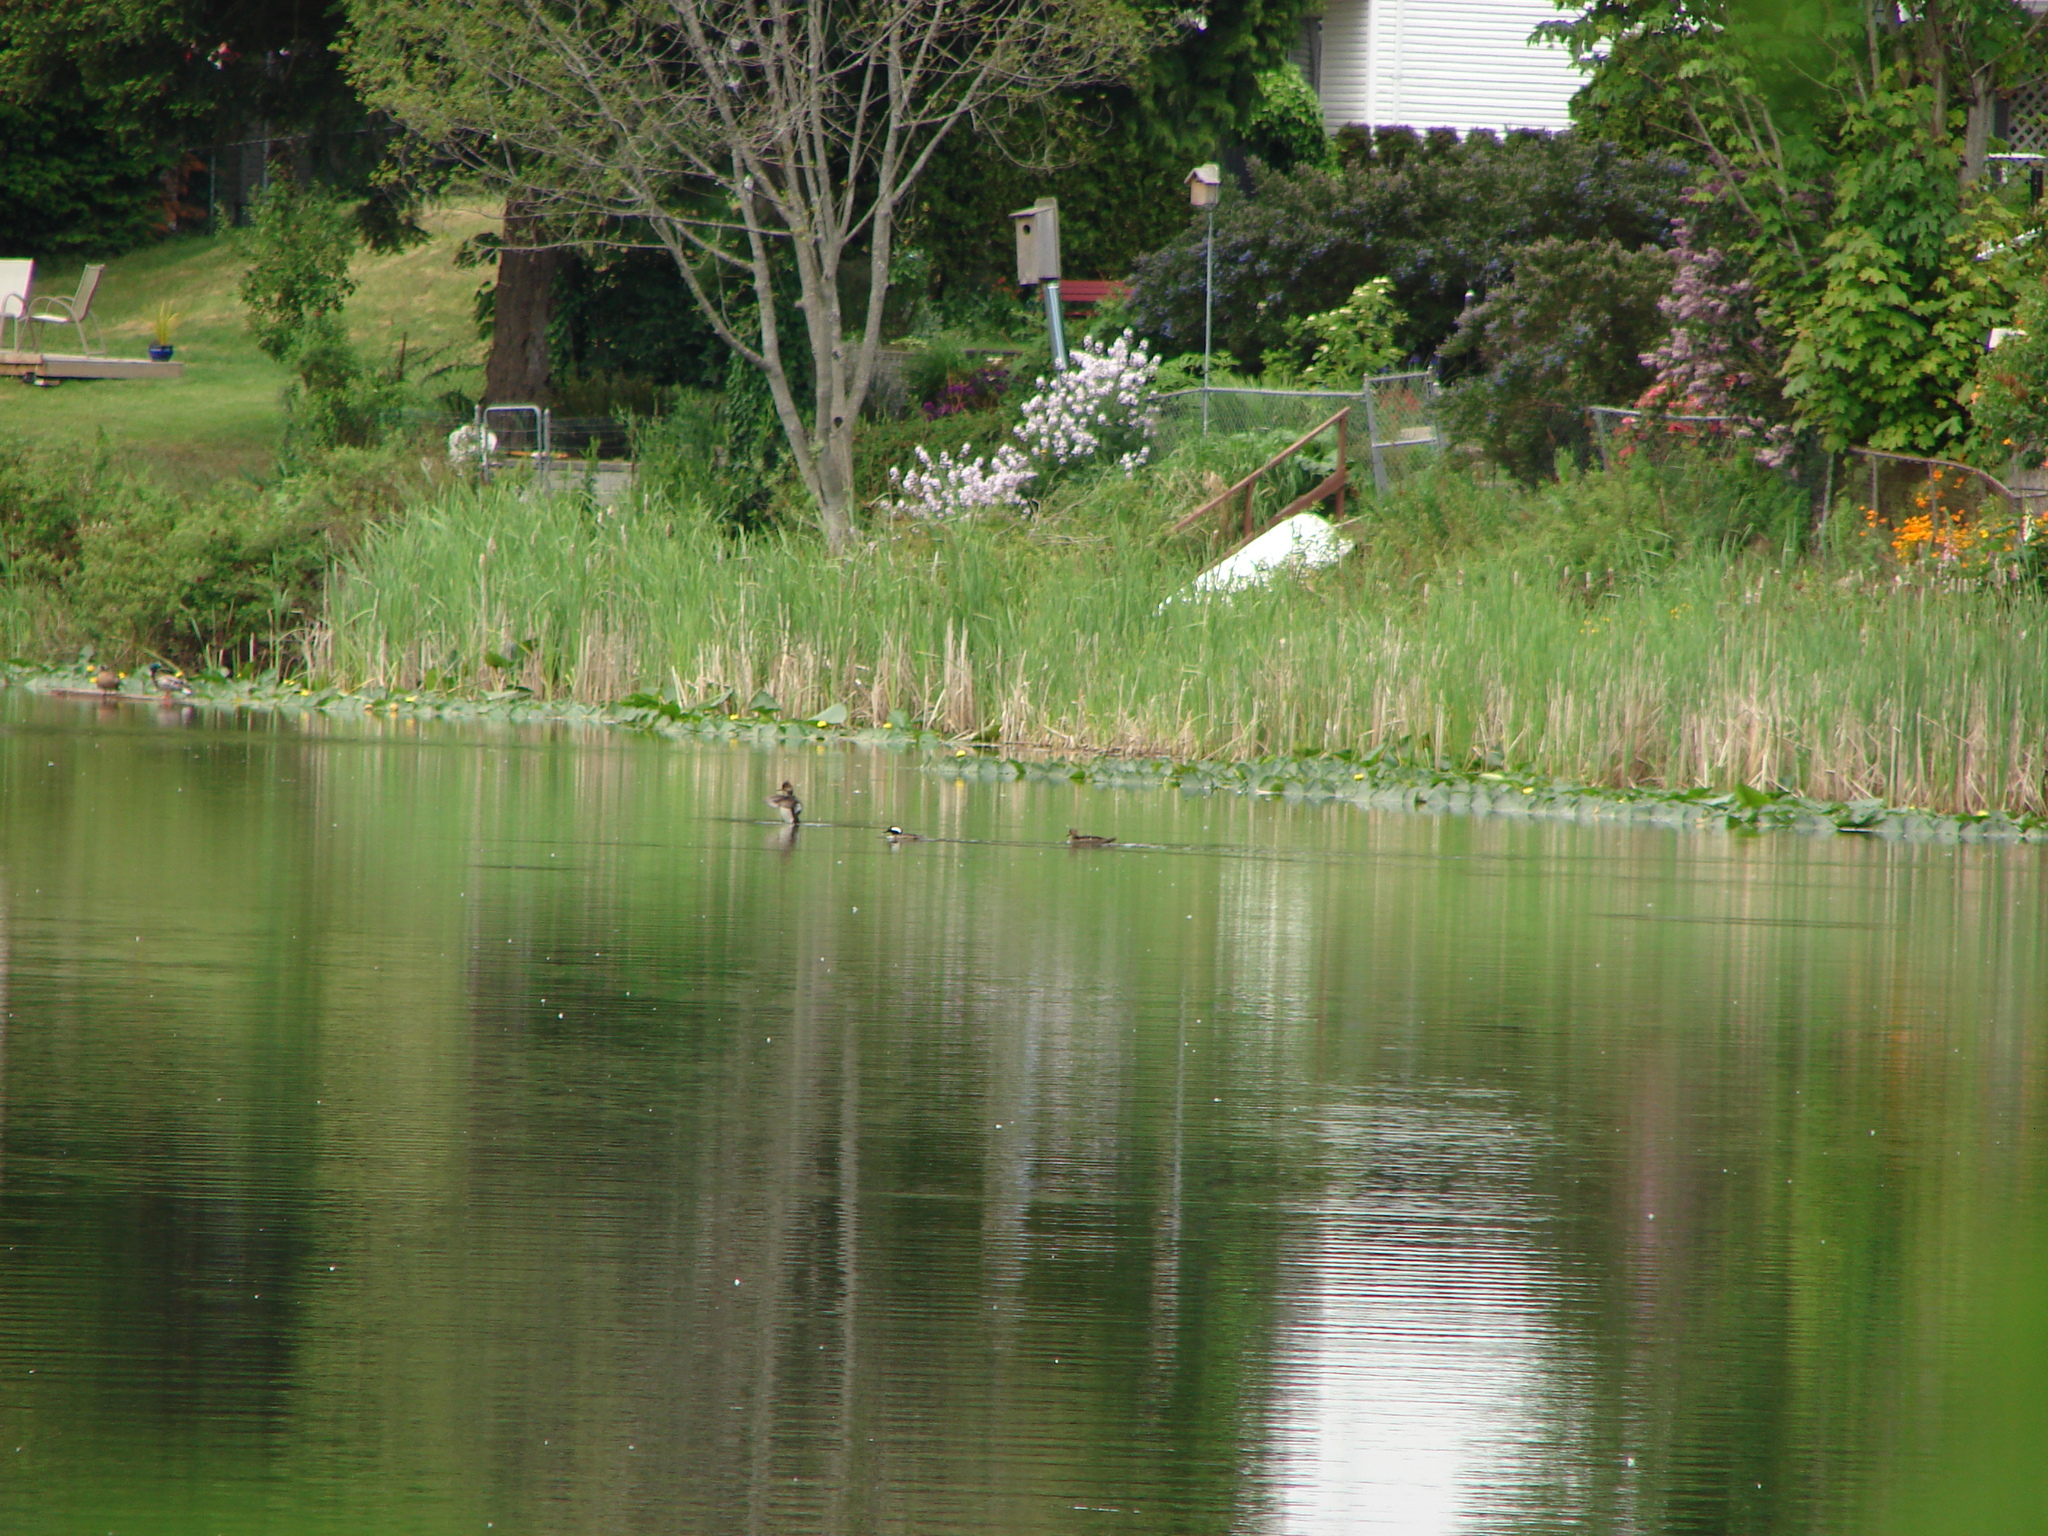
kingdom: Animalia
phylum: Chordata
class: Aves
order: Anseriformes
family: Anatidae
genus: Lophodytes
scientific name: Lophodytes cucullatus
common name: Hooded merganser
